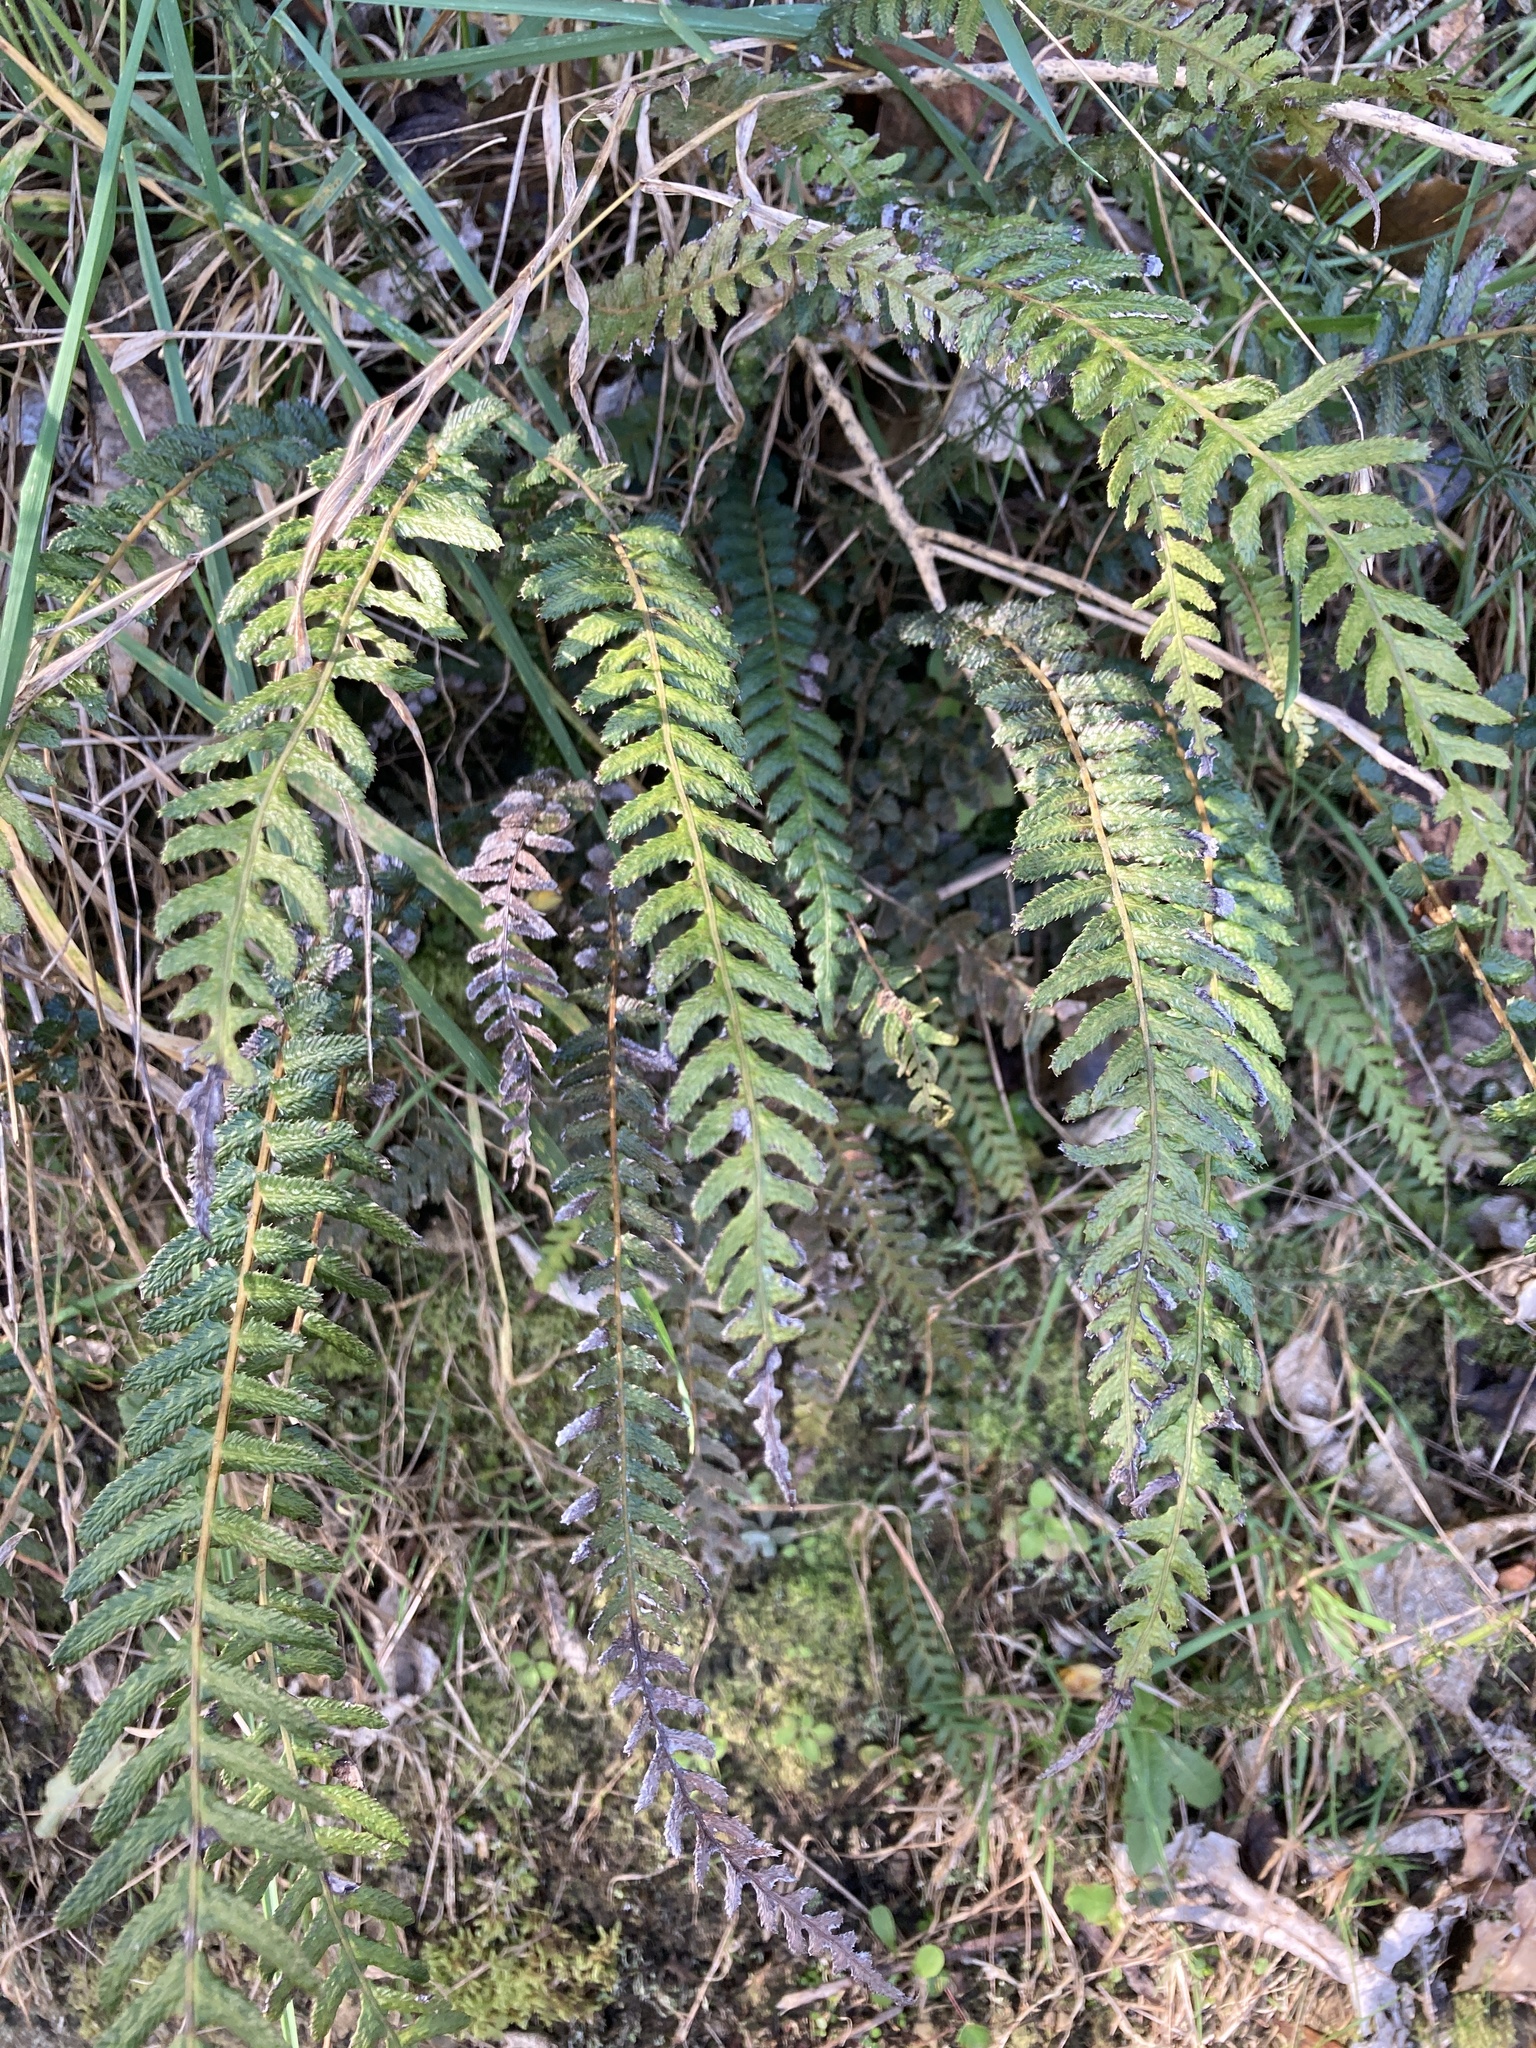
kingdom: Plantae
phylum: Tracheophyta
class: Polypodiopsida
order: Polypodiales
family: Blechnaceae
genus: Doodia
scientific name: Doodia australis
